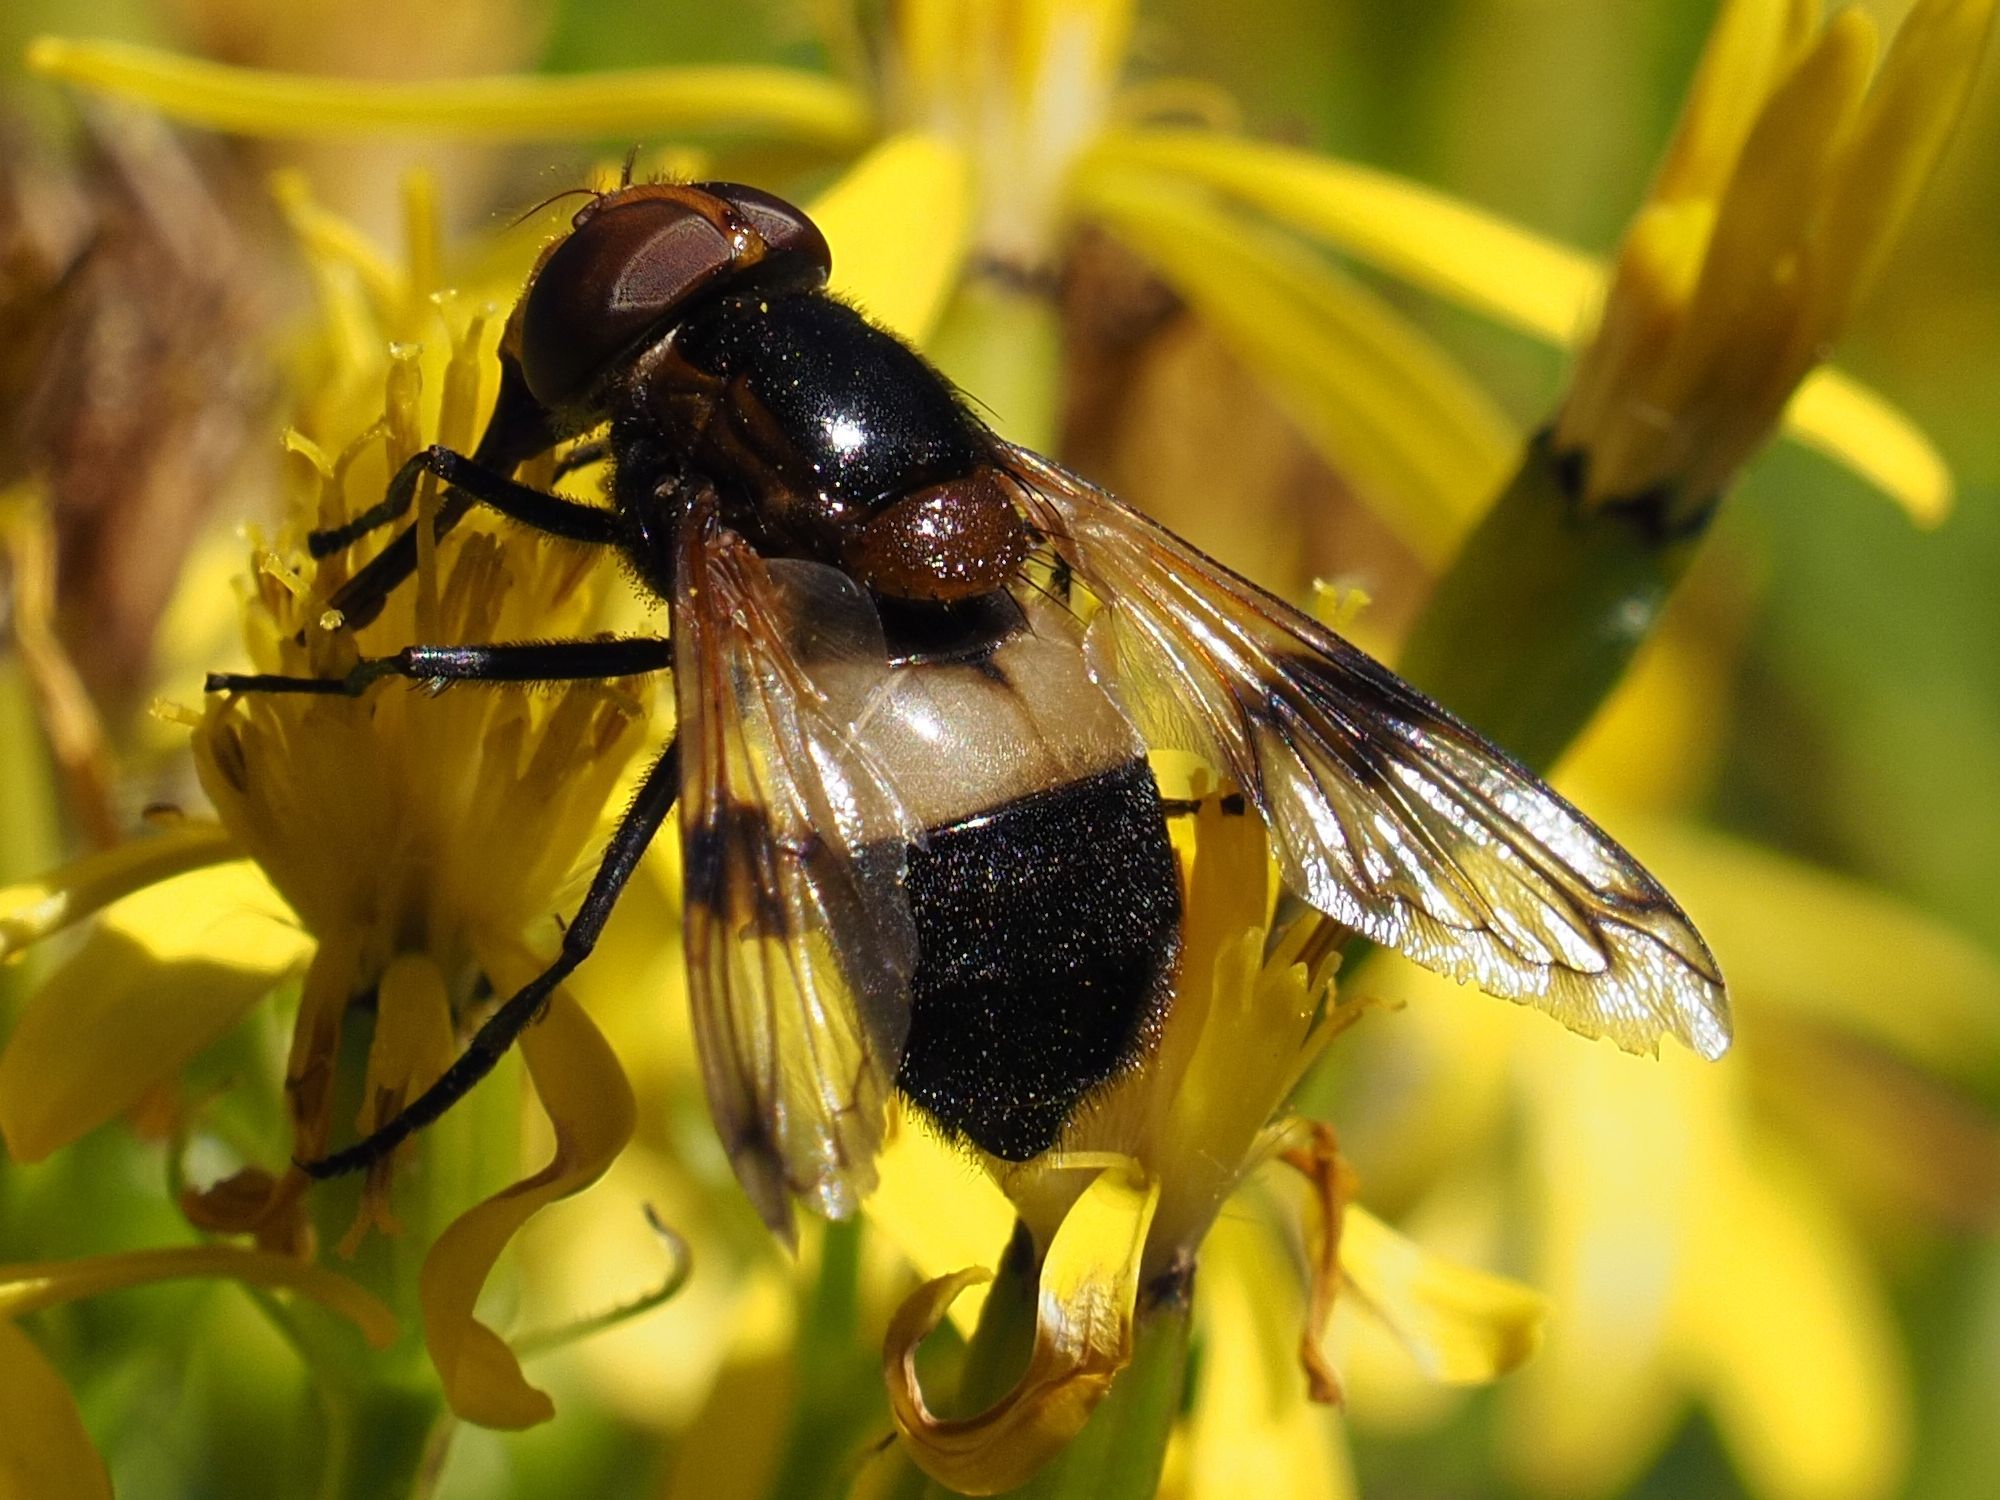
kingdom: Animalia
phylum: Arthropoda
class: Insecta
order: Diptera
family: Syrphidae
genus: Volucella
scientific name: Volucella pellucens
